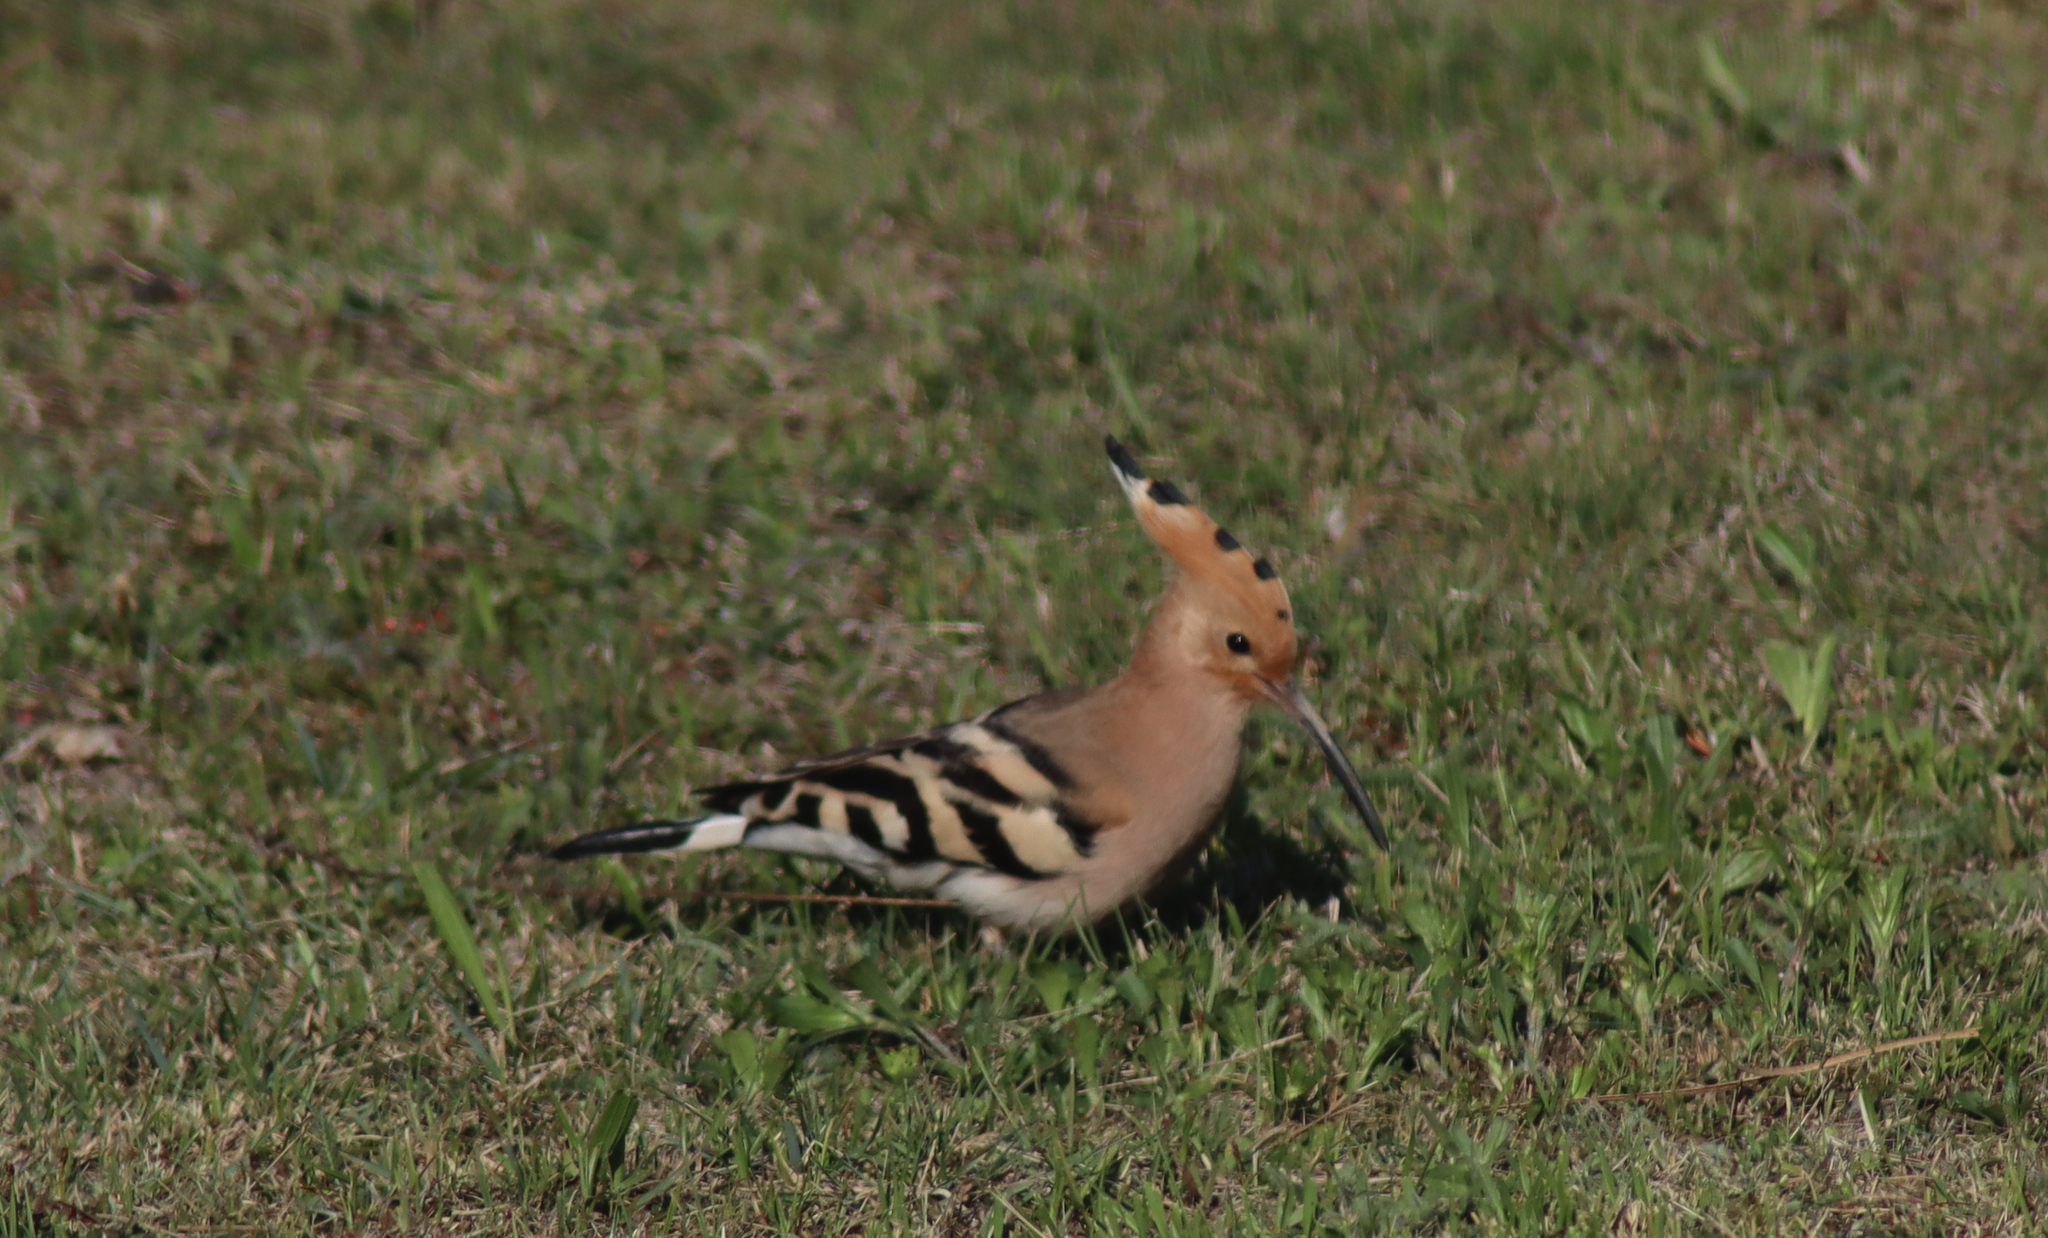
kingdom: Animalia
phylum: Chordata
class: Aves
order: Bucerotiformes
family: Upupidae
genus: Upupa
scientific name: Upupa epops
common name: Eurasian hoopoe
